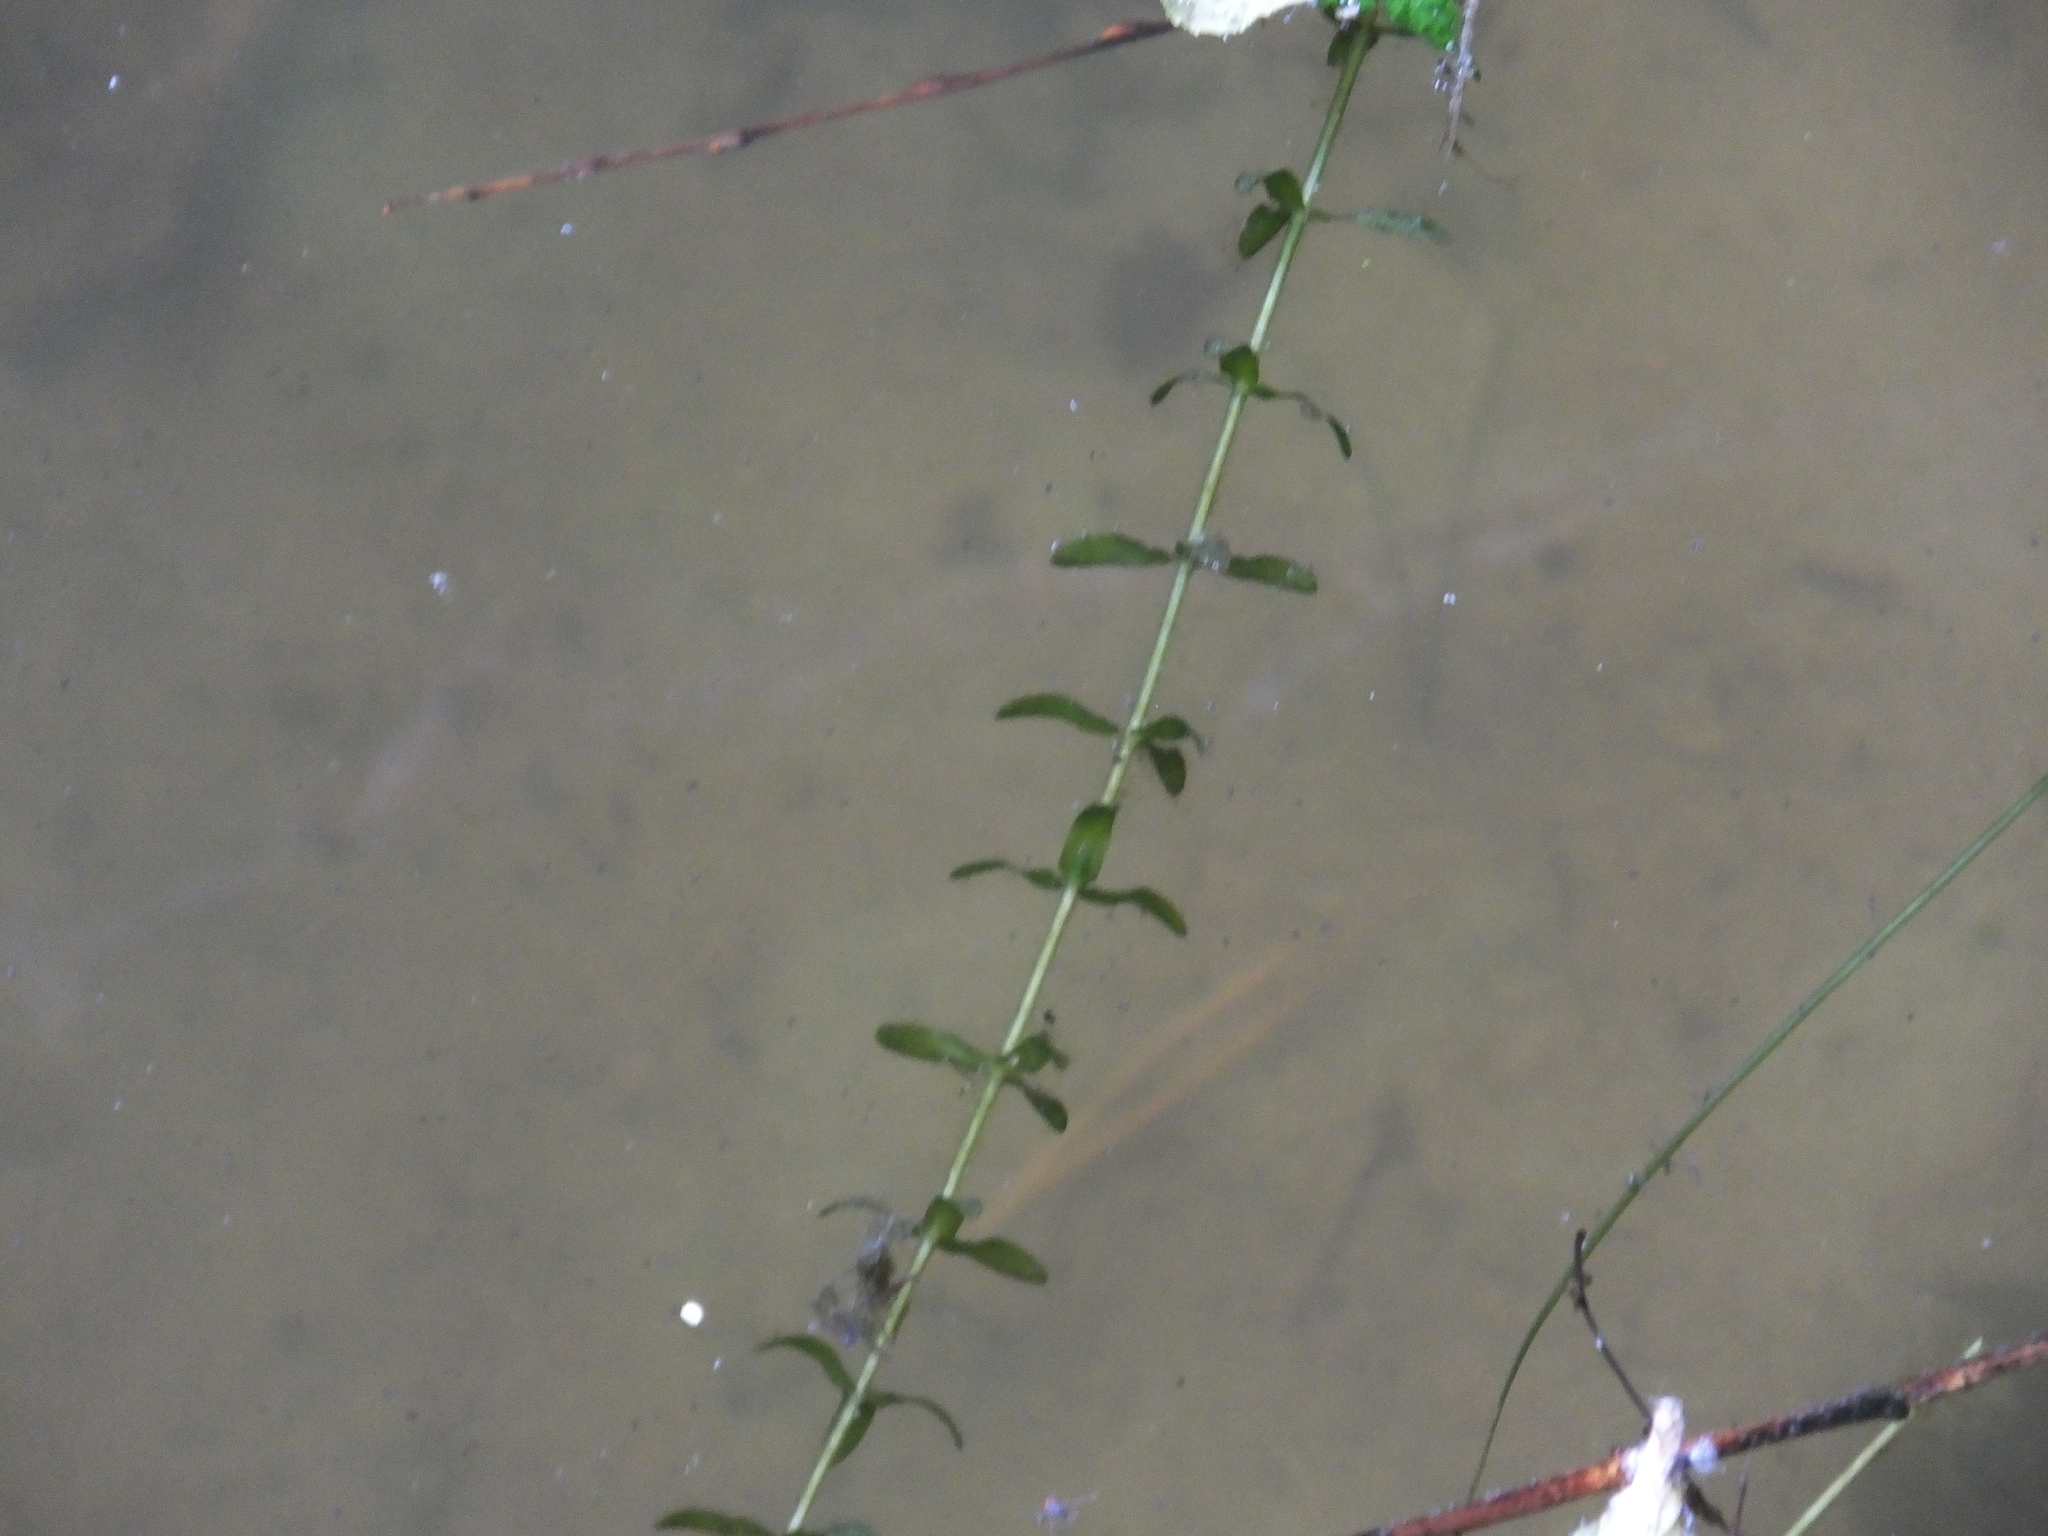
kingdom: Plantae
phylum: Tracheophyta
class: Liliopsida
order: Alismatales
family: Hydrocharitaceae
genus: Elodea
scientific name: Elodea canadensis
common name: Canadian waterweed
